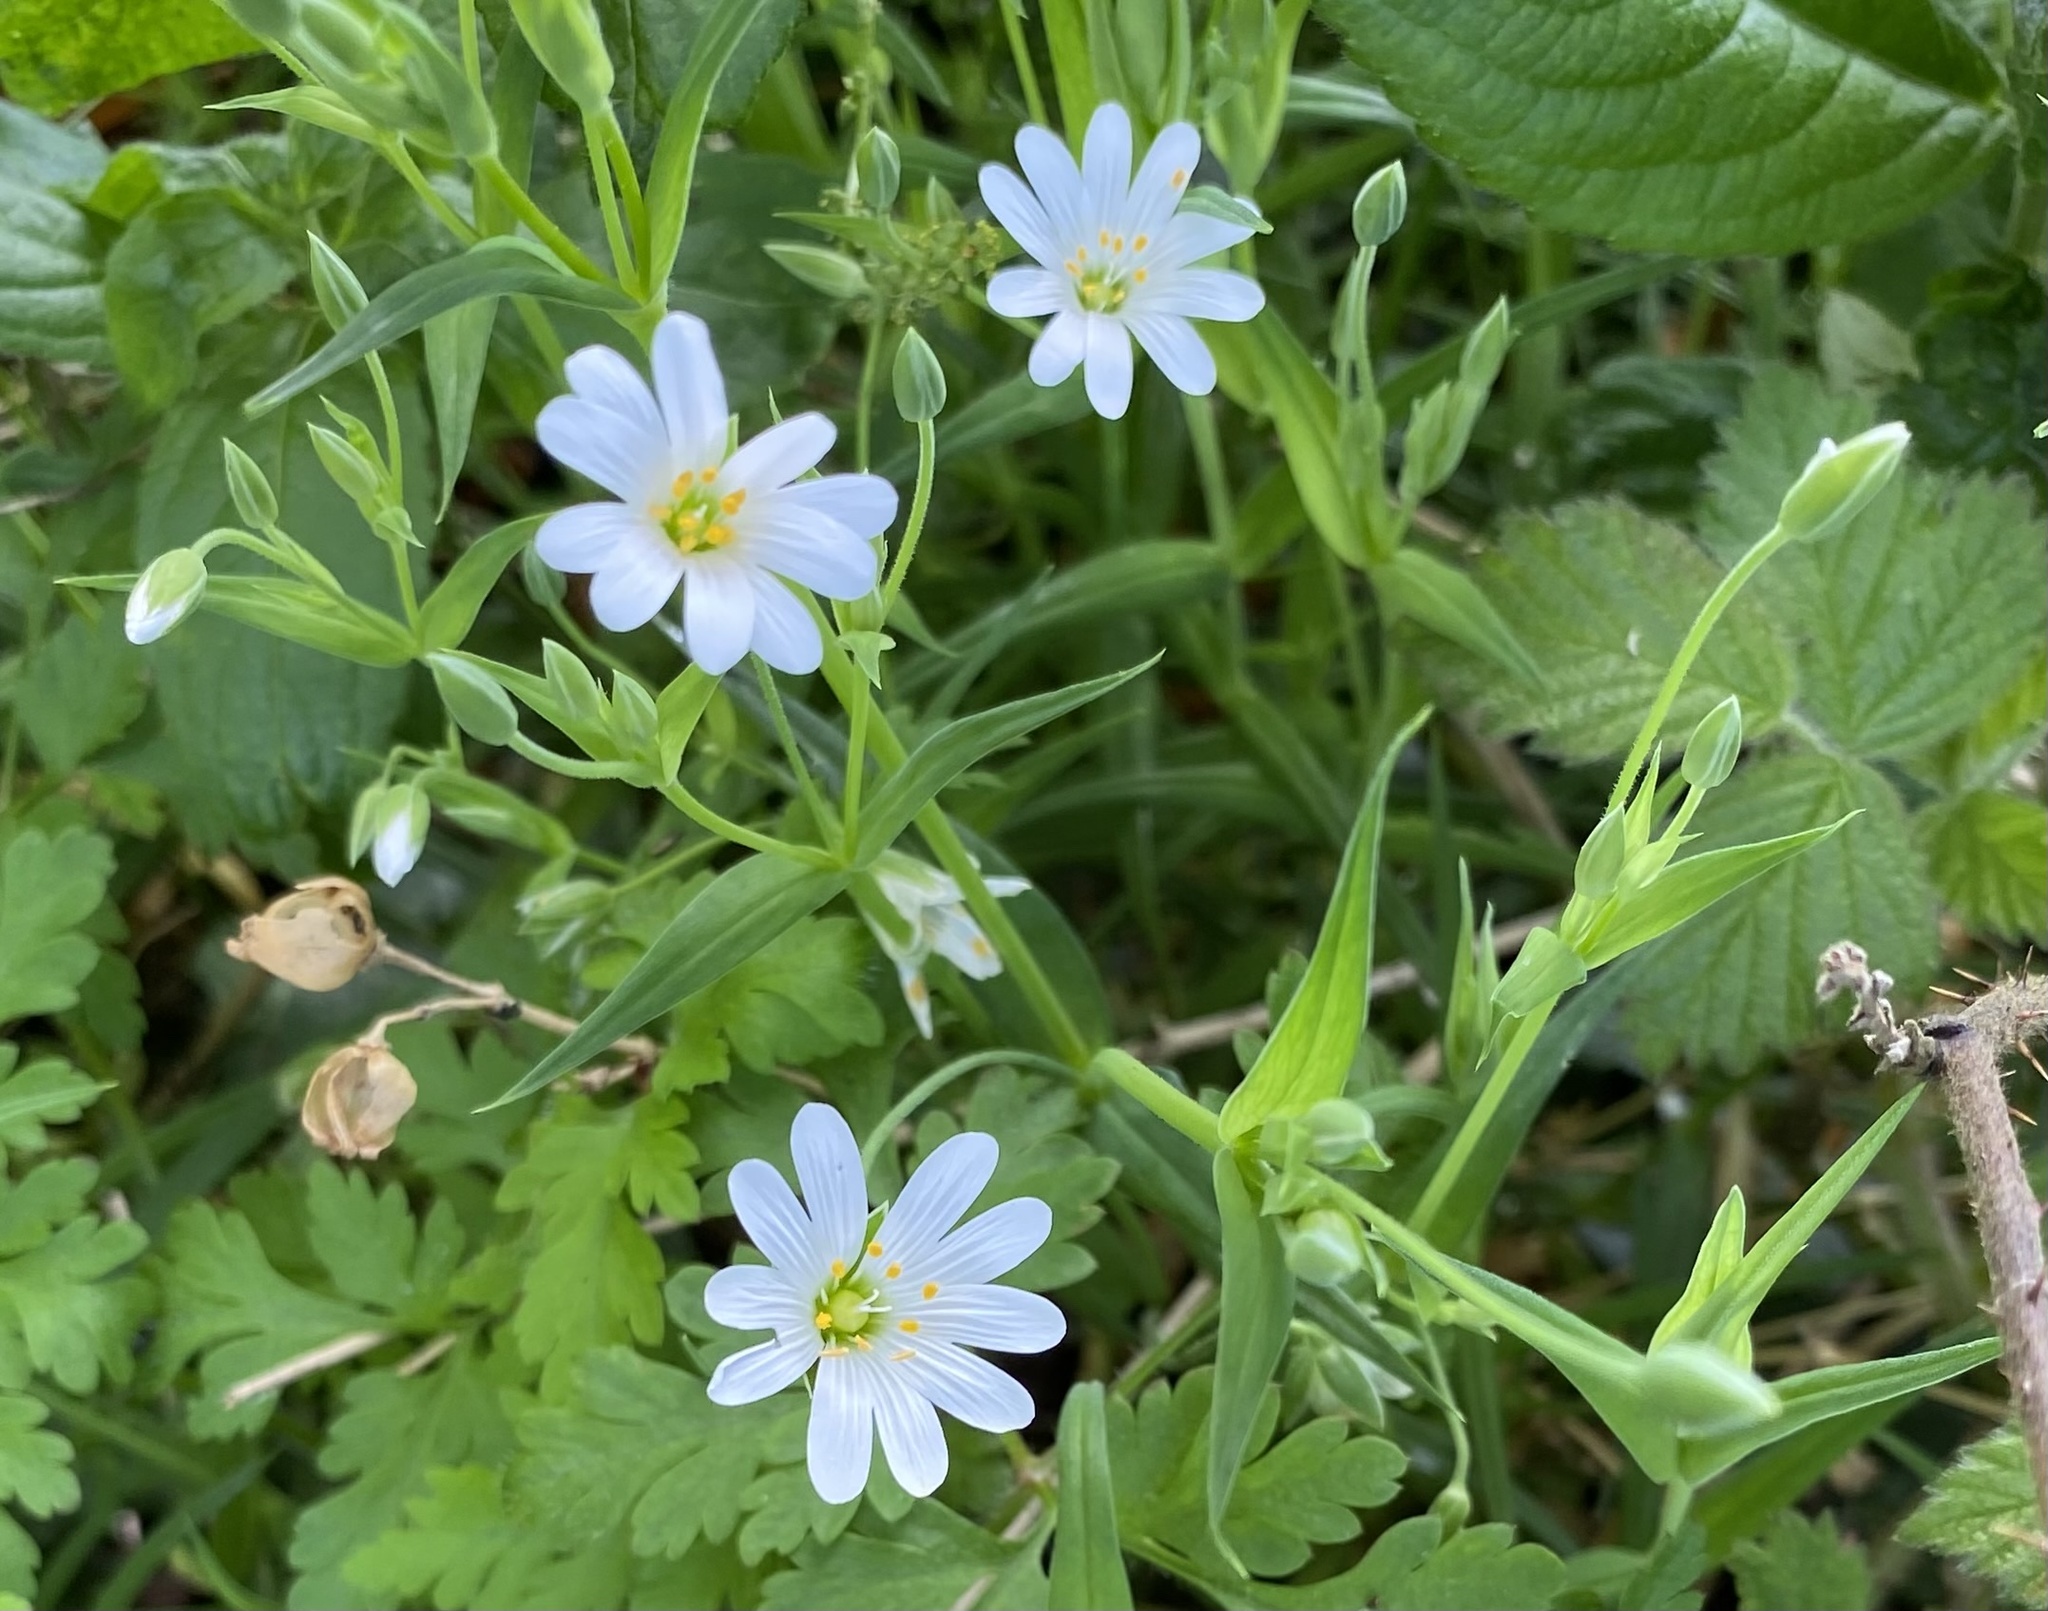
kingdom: Plantae
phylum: Tracheophyta
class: Magnoliopsida
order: Caryophyllales
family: Caryophyllaceae
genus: Rabelera
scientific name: Rabelera holostea
